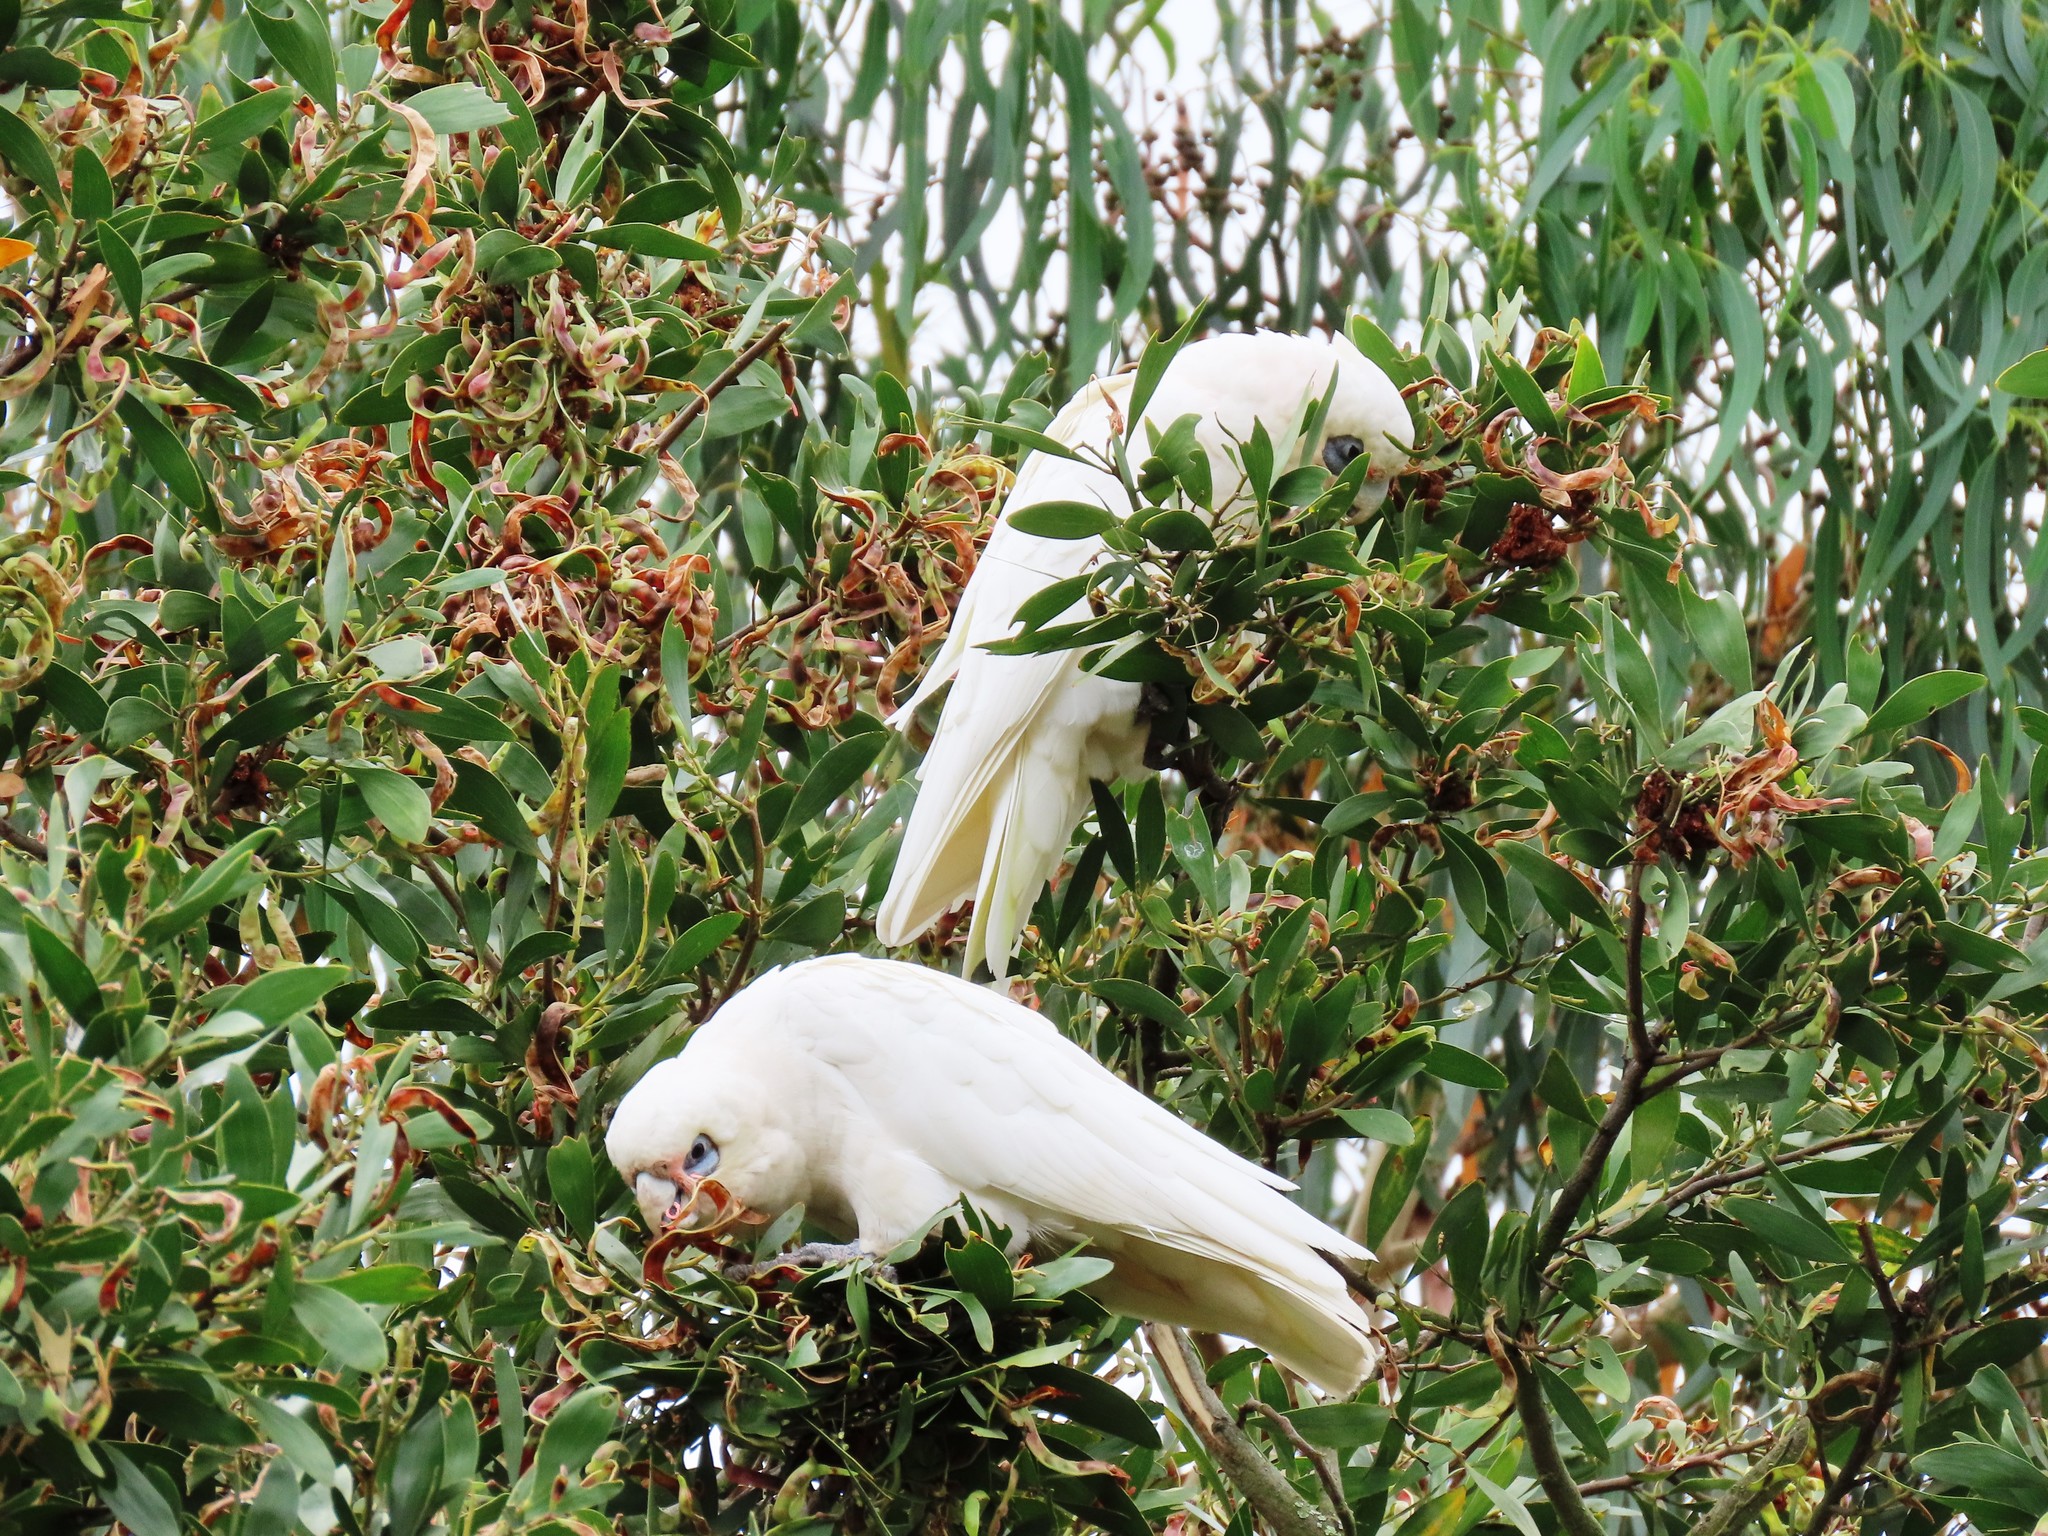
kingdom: Animalia
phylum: Chordata
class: Aves
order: Psittaciformes
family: Psittacidae
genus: Cacatua
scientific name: Cacatua sanguinea
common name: Little corella
